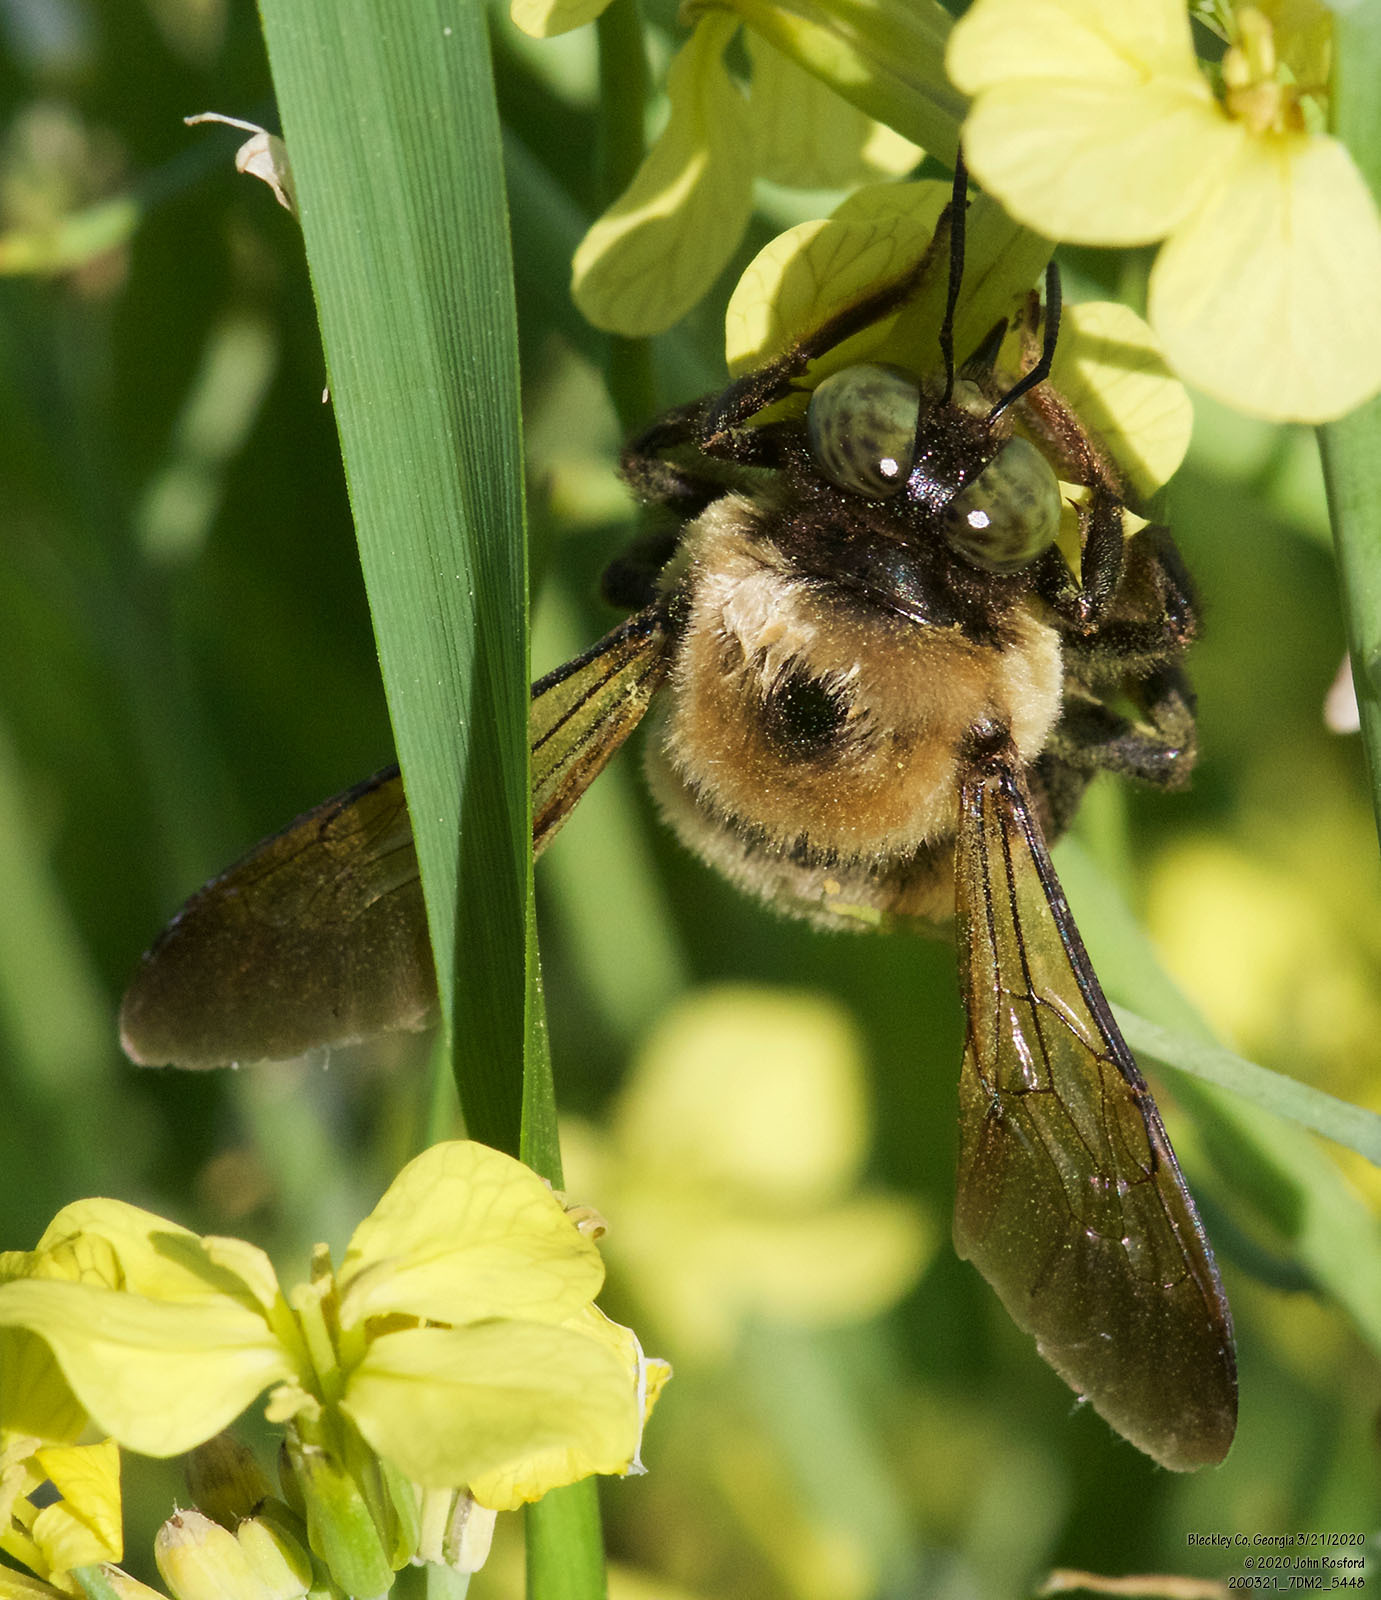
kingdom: Animalia
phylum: Arthropoda
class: Insecta
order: Hymenoptera
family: Apidae
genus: Xylocopa
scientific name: Xylocopa virginica
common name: Carpenter bee
